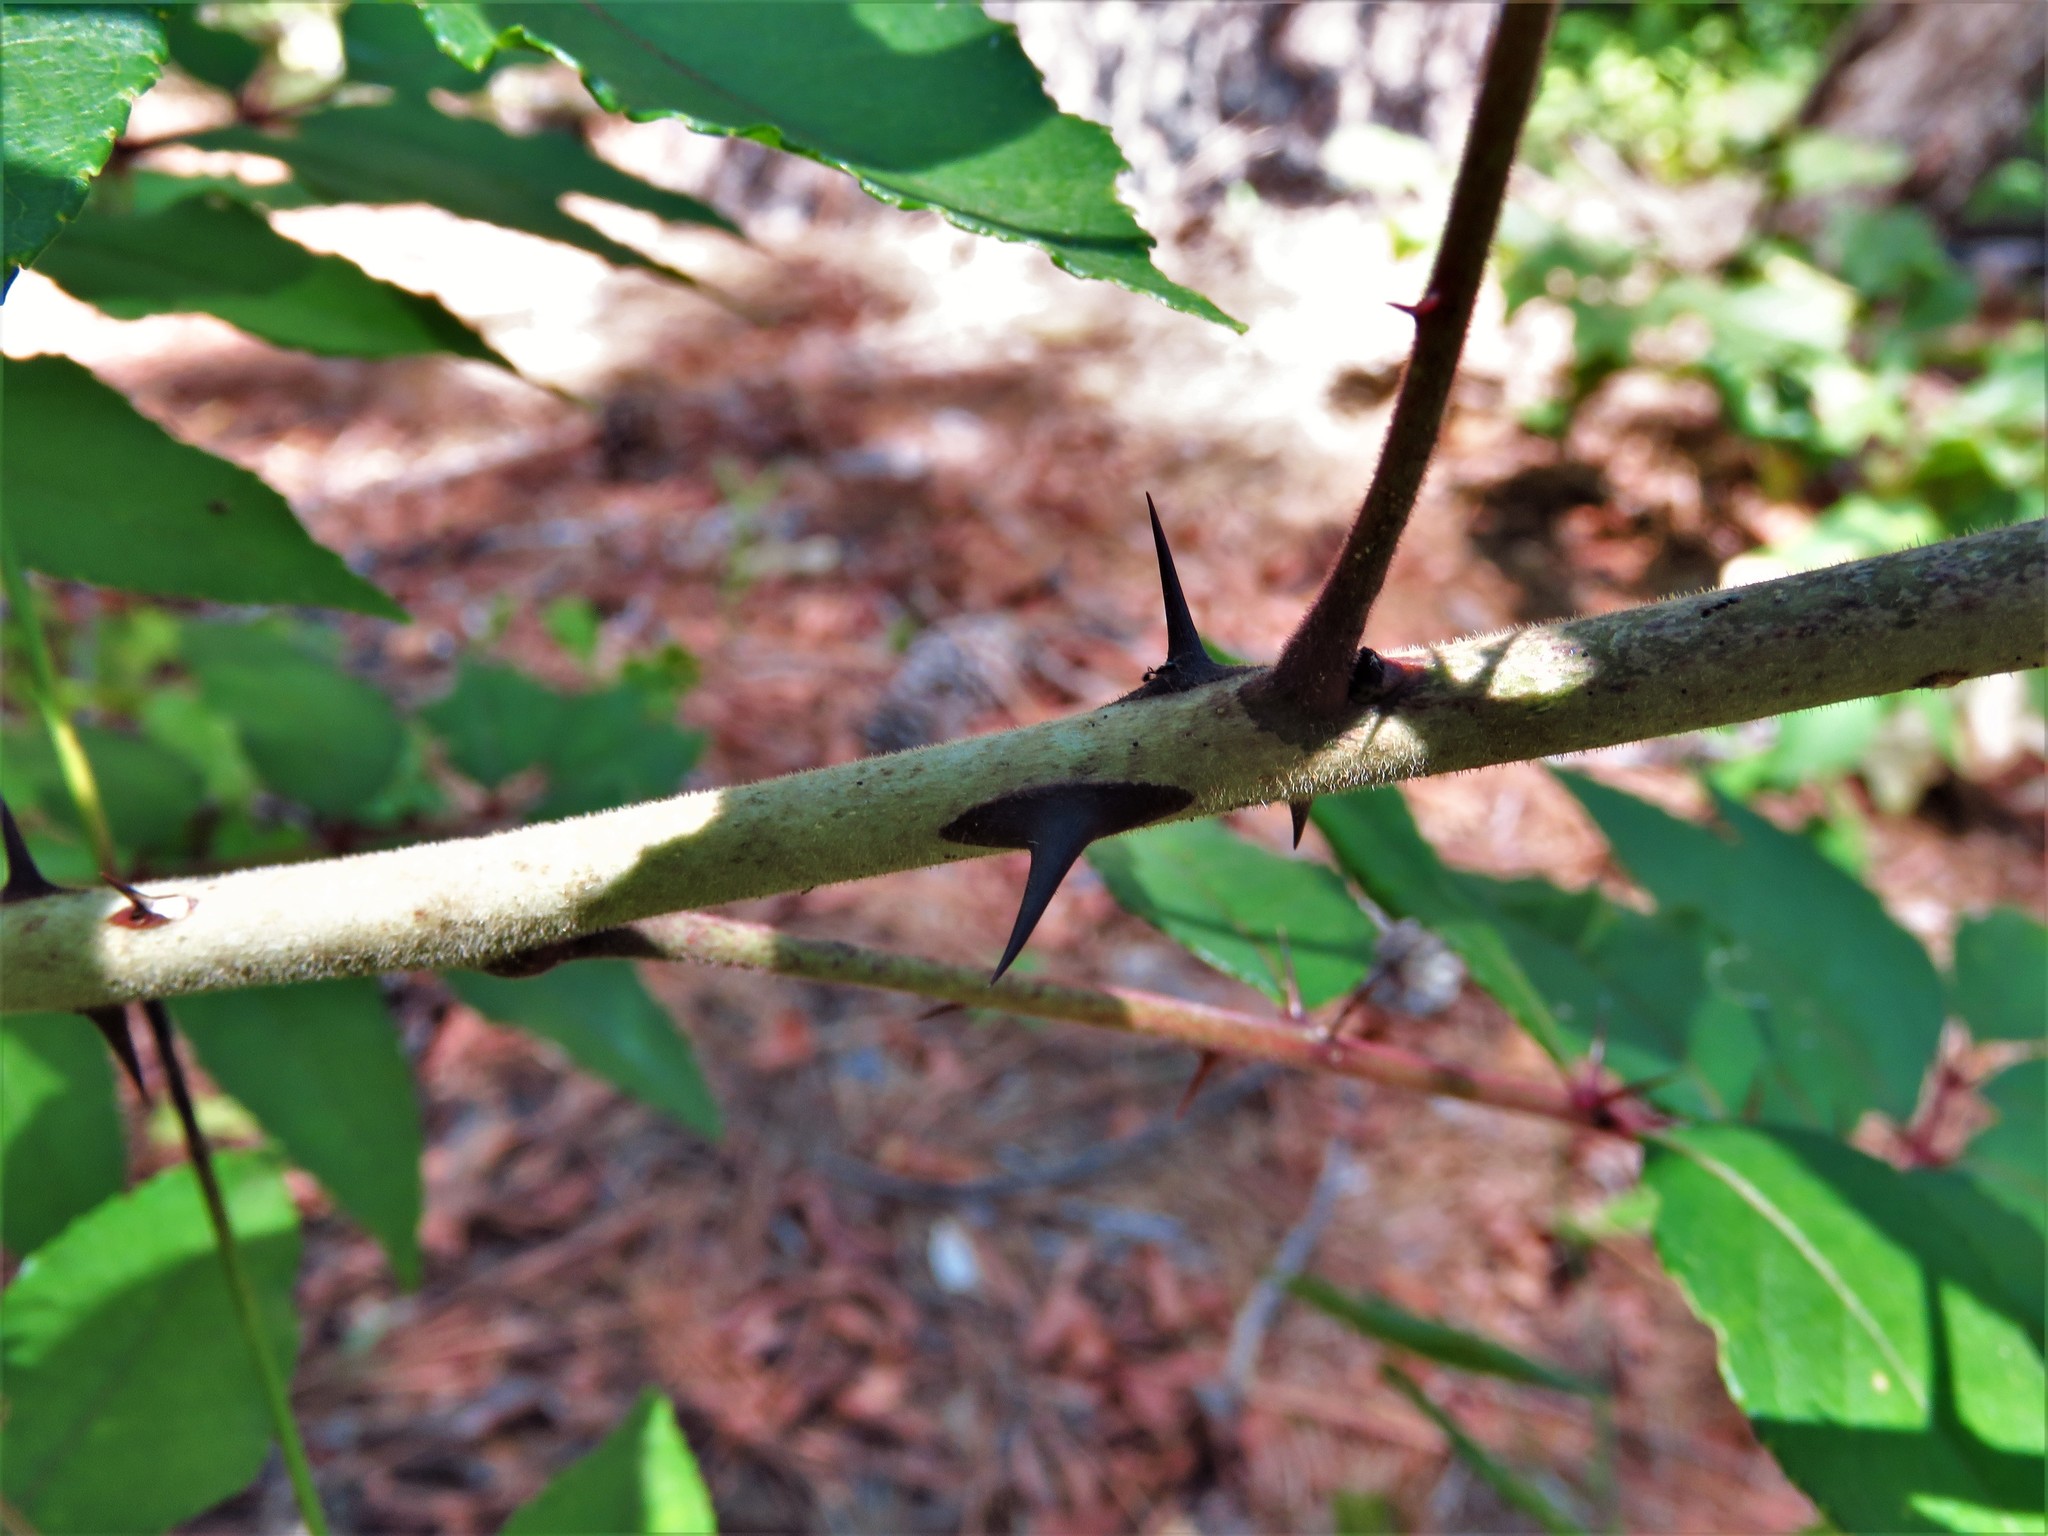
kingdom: Plantae
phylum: Tracheophyta
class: Magnoliopsida
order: Sapindales
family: Rutaceae
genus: Zanthoxylum
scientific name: Zanthoxylum clava-herculis
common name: Hercules'-club
